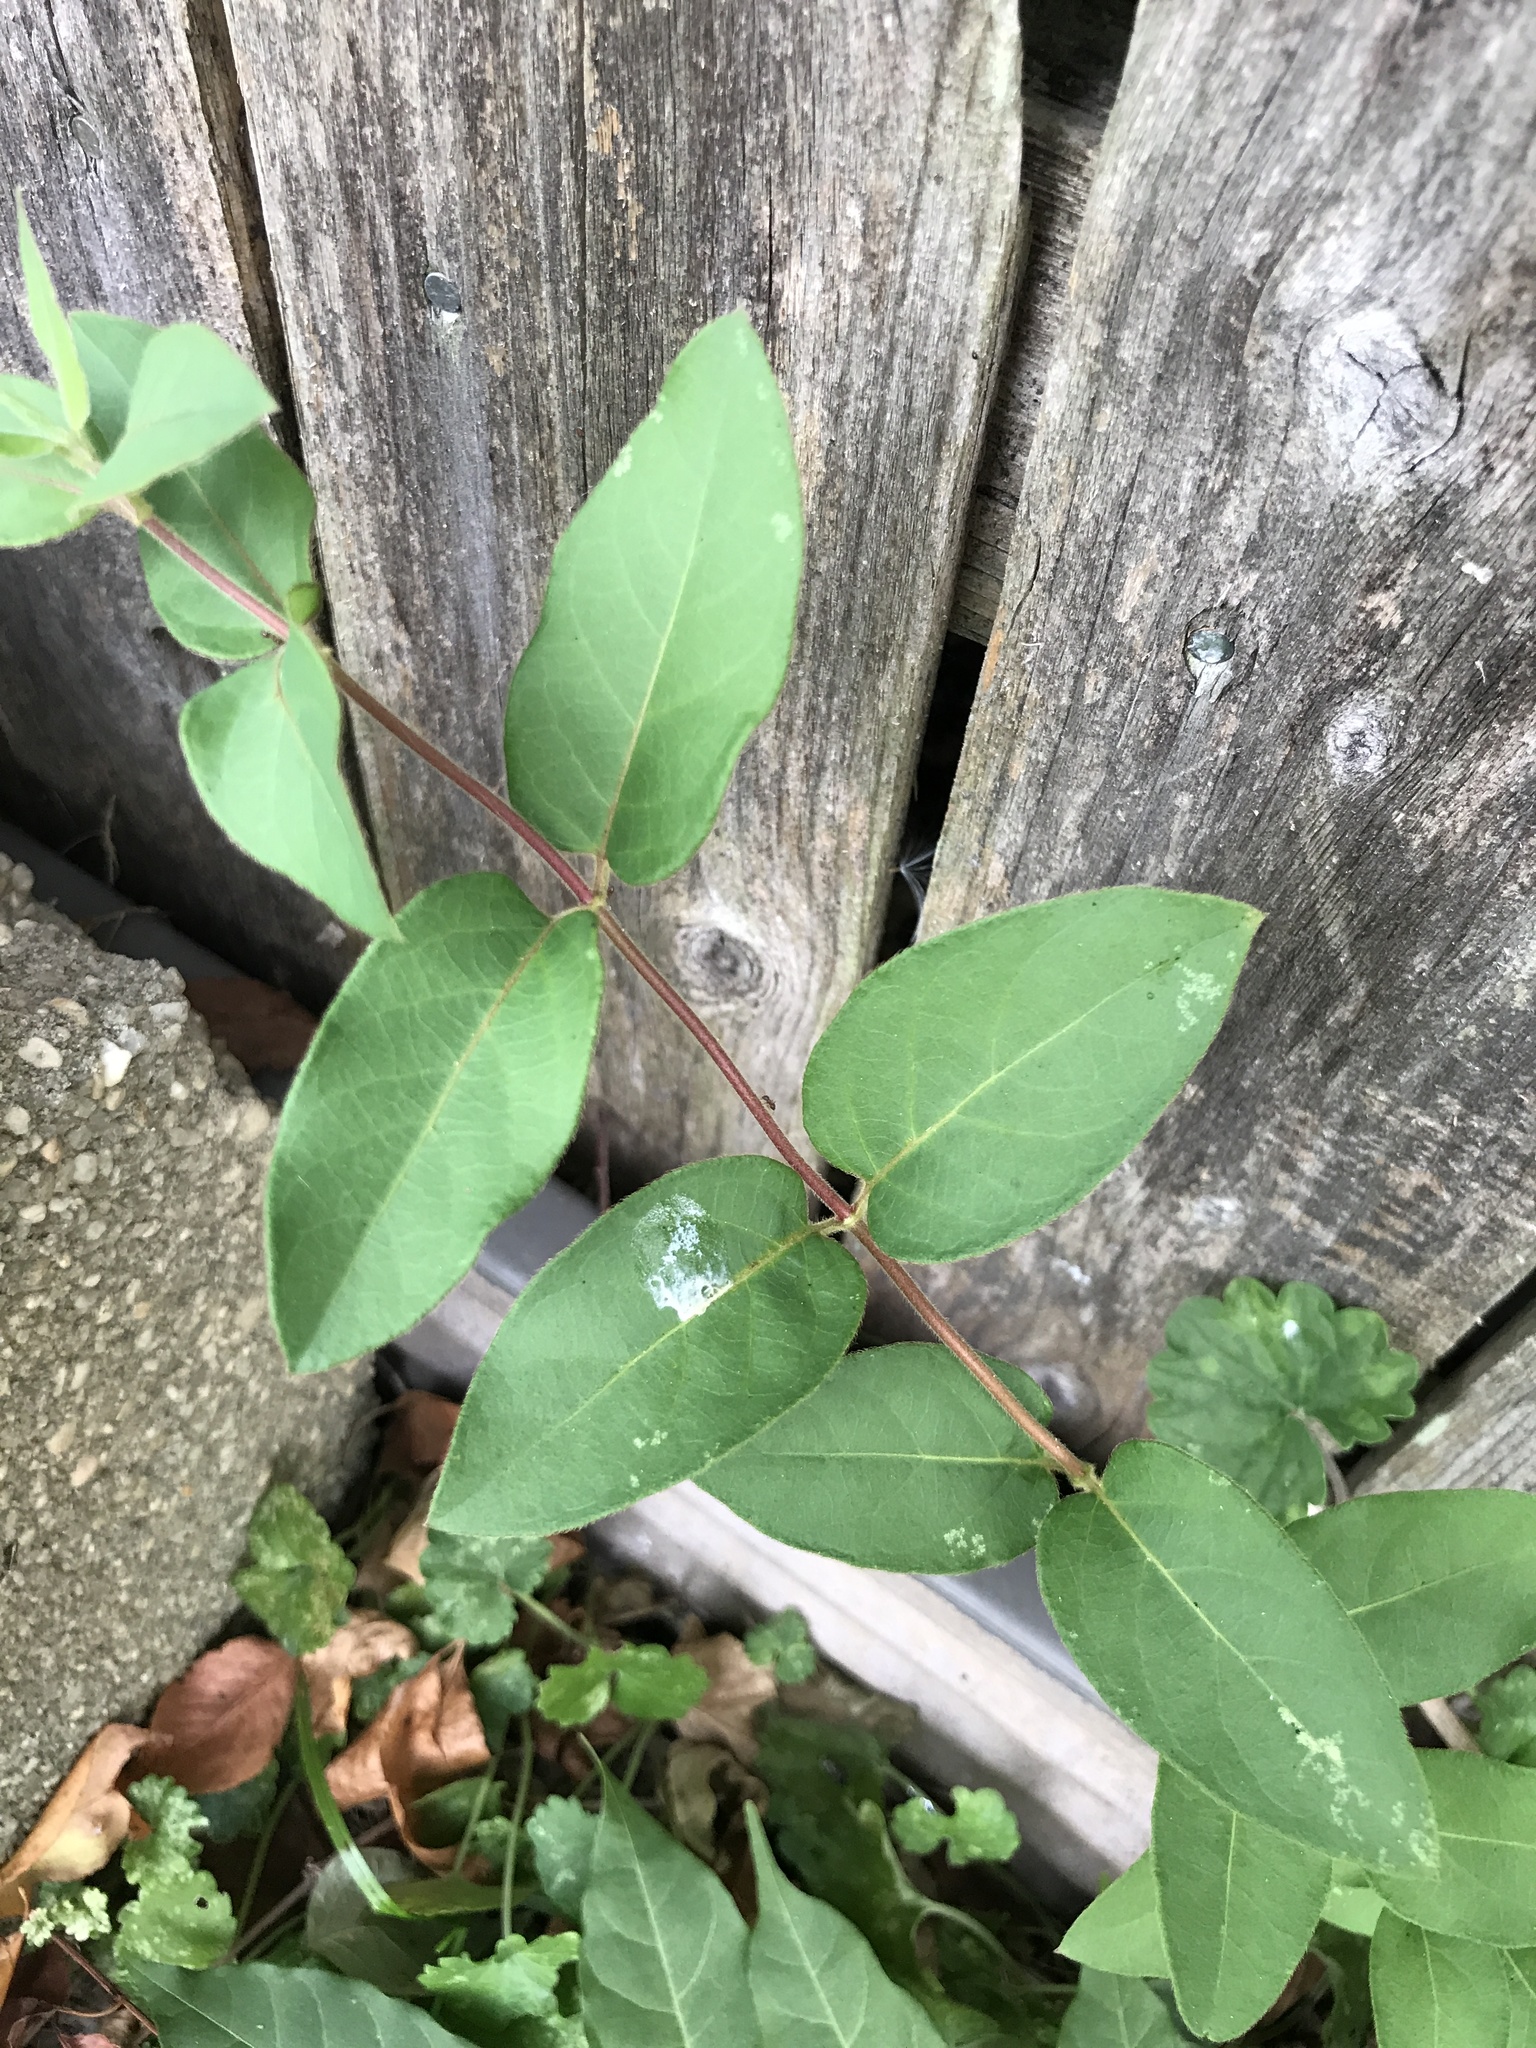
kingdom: Plantae
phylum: Tracheophyta
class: Magnoliopsida
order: Dipsacales
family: Caprifoliaceae
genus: Lonicera
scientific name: Lonicera japonica
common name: Japanese honeysuckle
